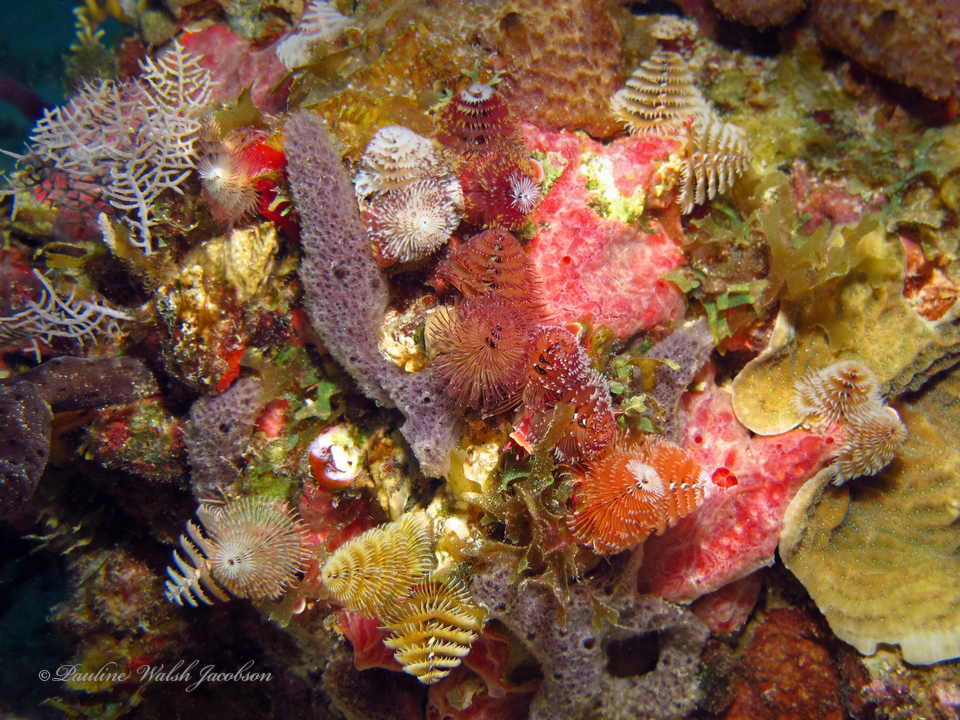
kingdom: Animalia
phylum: Annelida
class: Polychaeta
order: Sabellida
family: Serpulidae
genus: Spirobranchus
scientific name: Spirobranchus giganteus
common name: Christmas tree worm
